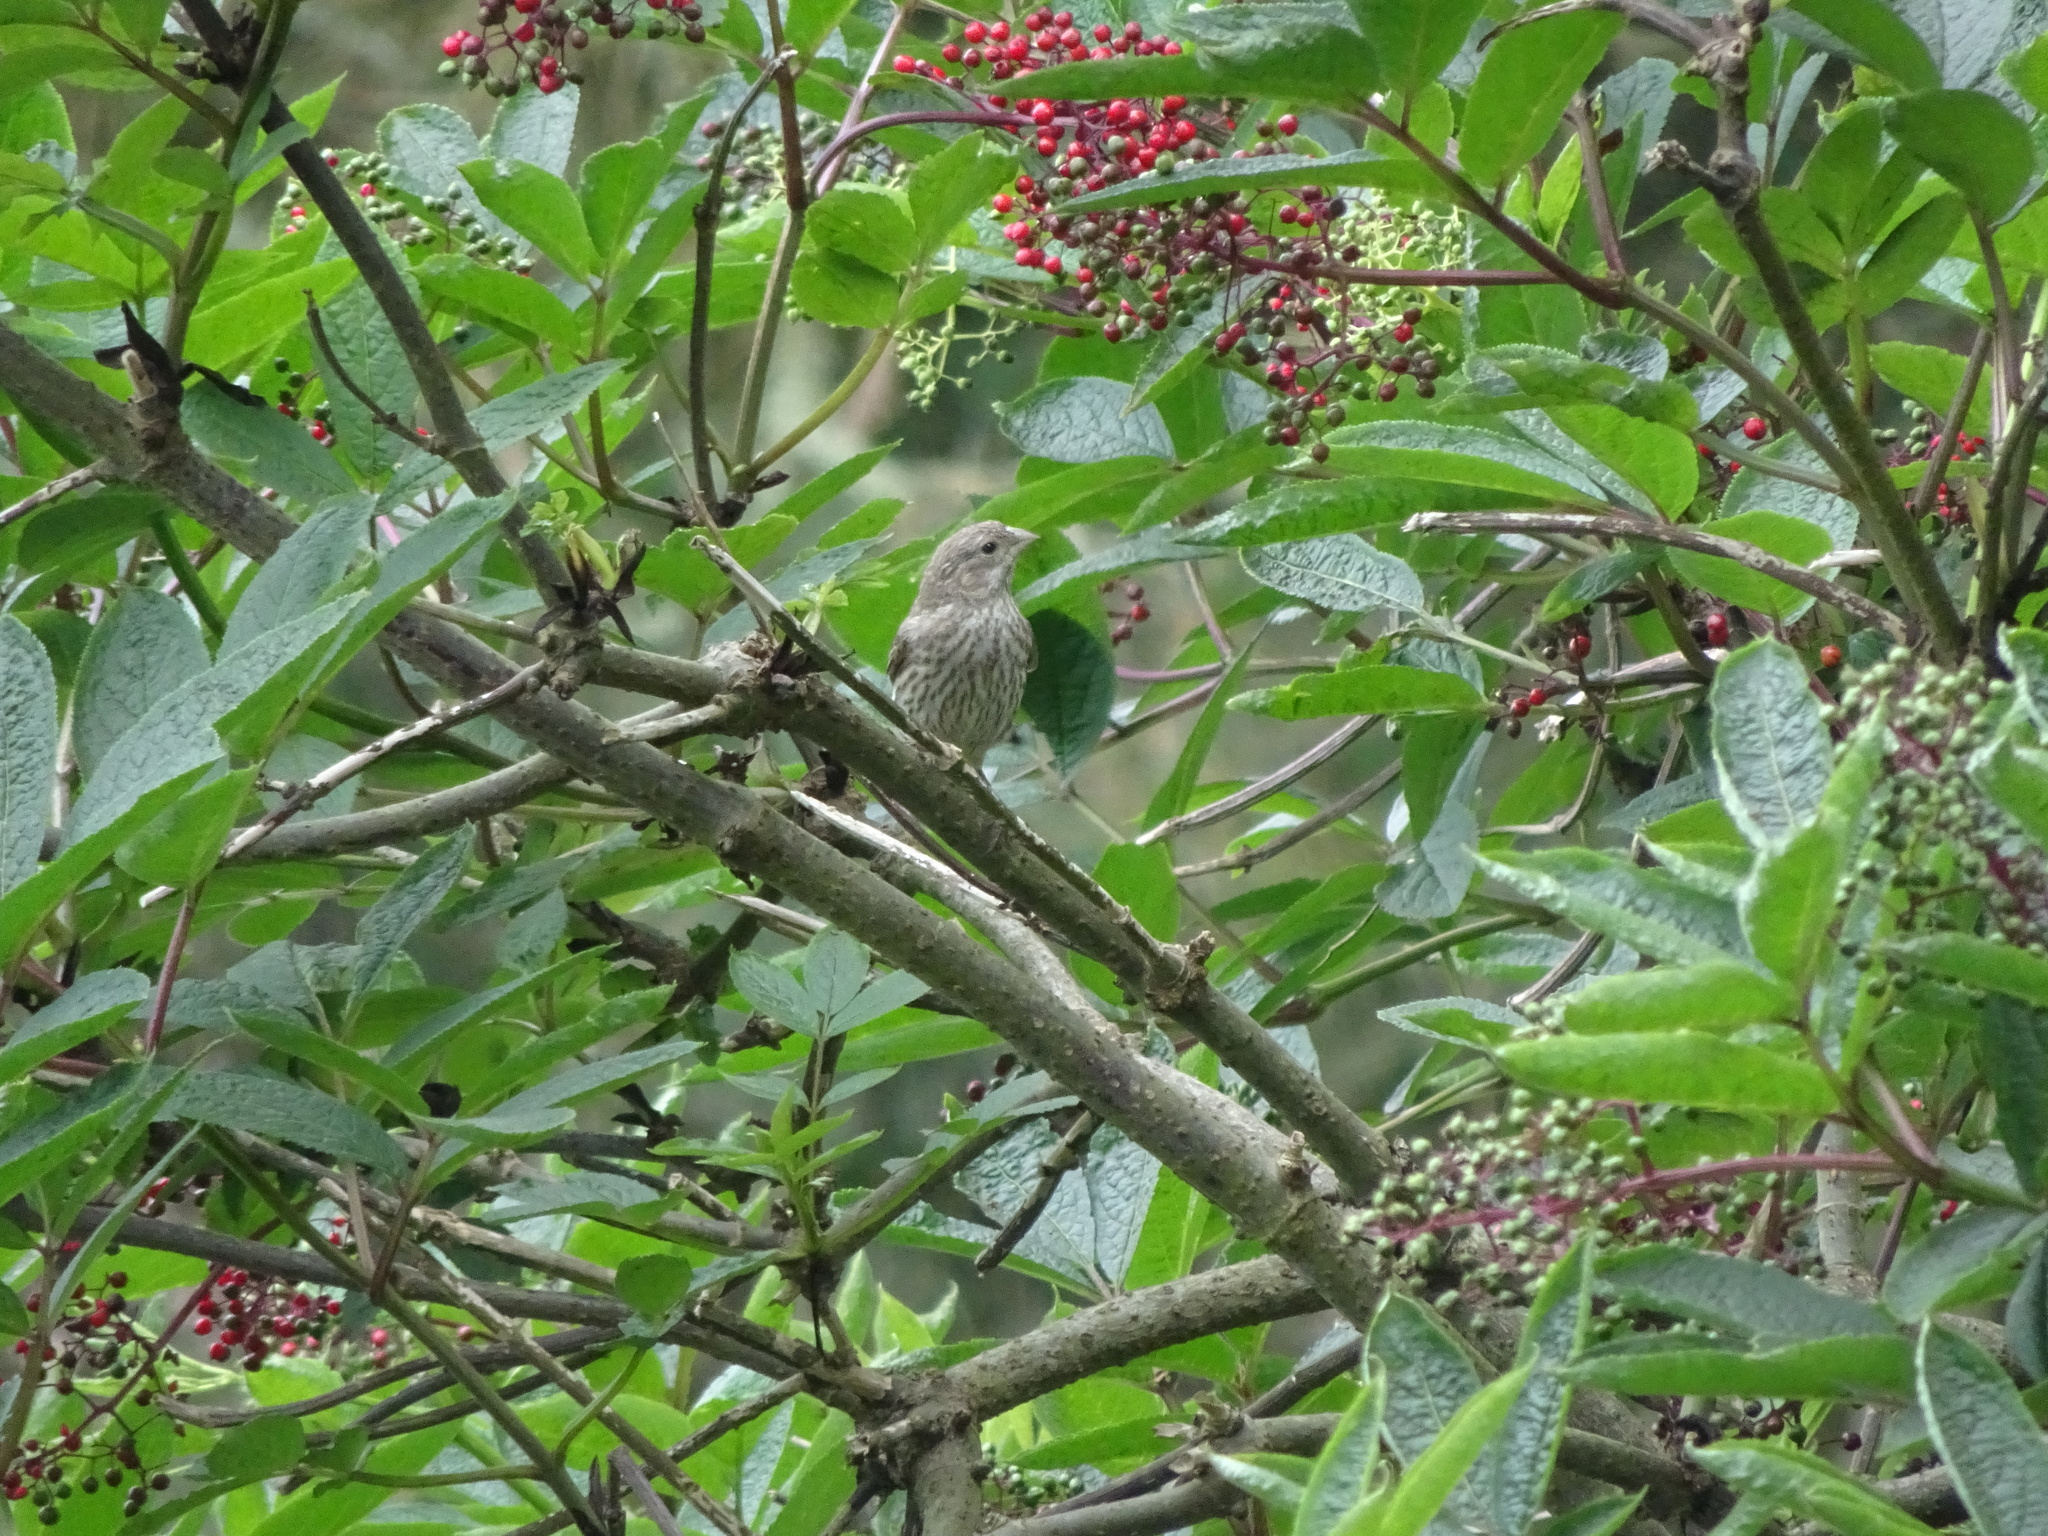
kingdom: Animalia
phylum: Chordata
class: Aves
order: Passeriformes
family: Fringillidae
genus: Haemorhous
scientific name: Haemorhous mexicanus
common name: House finch
